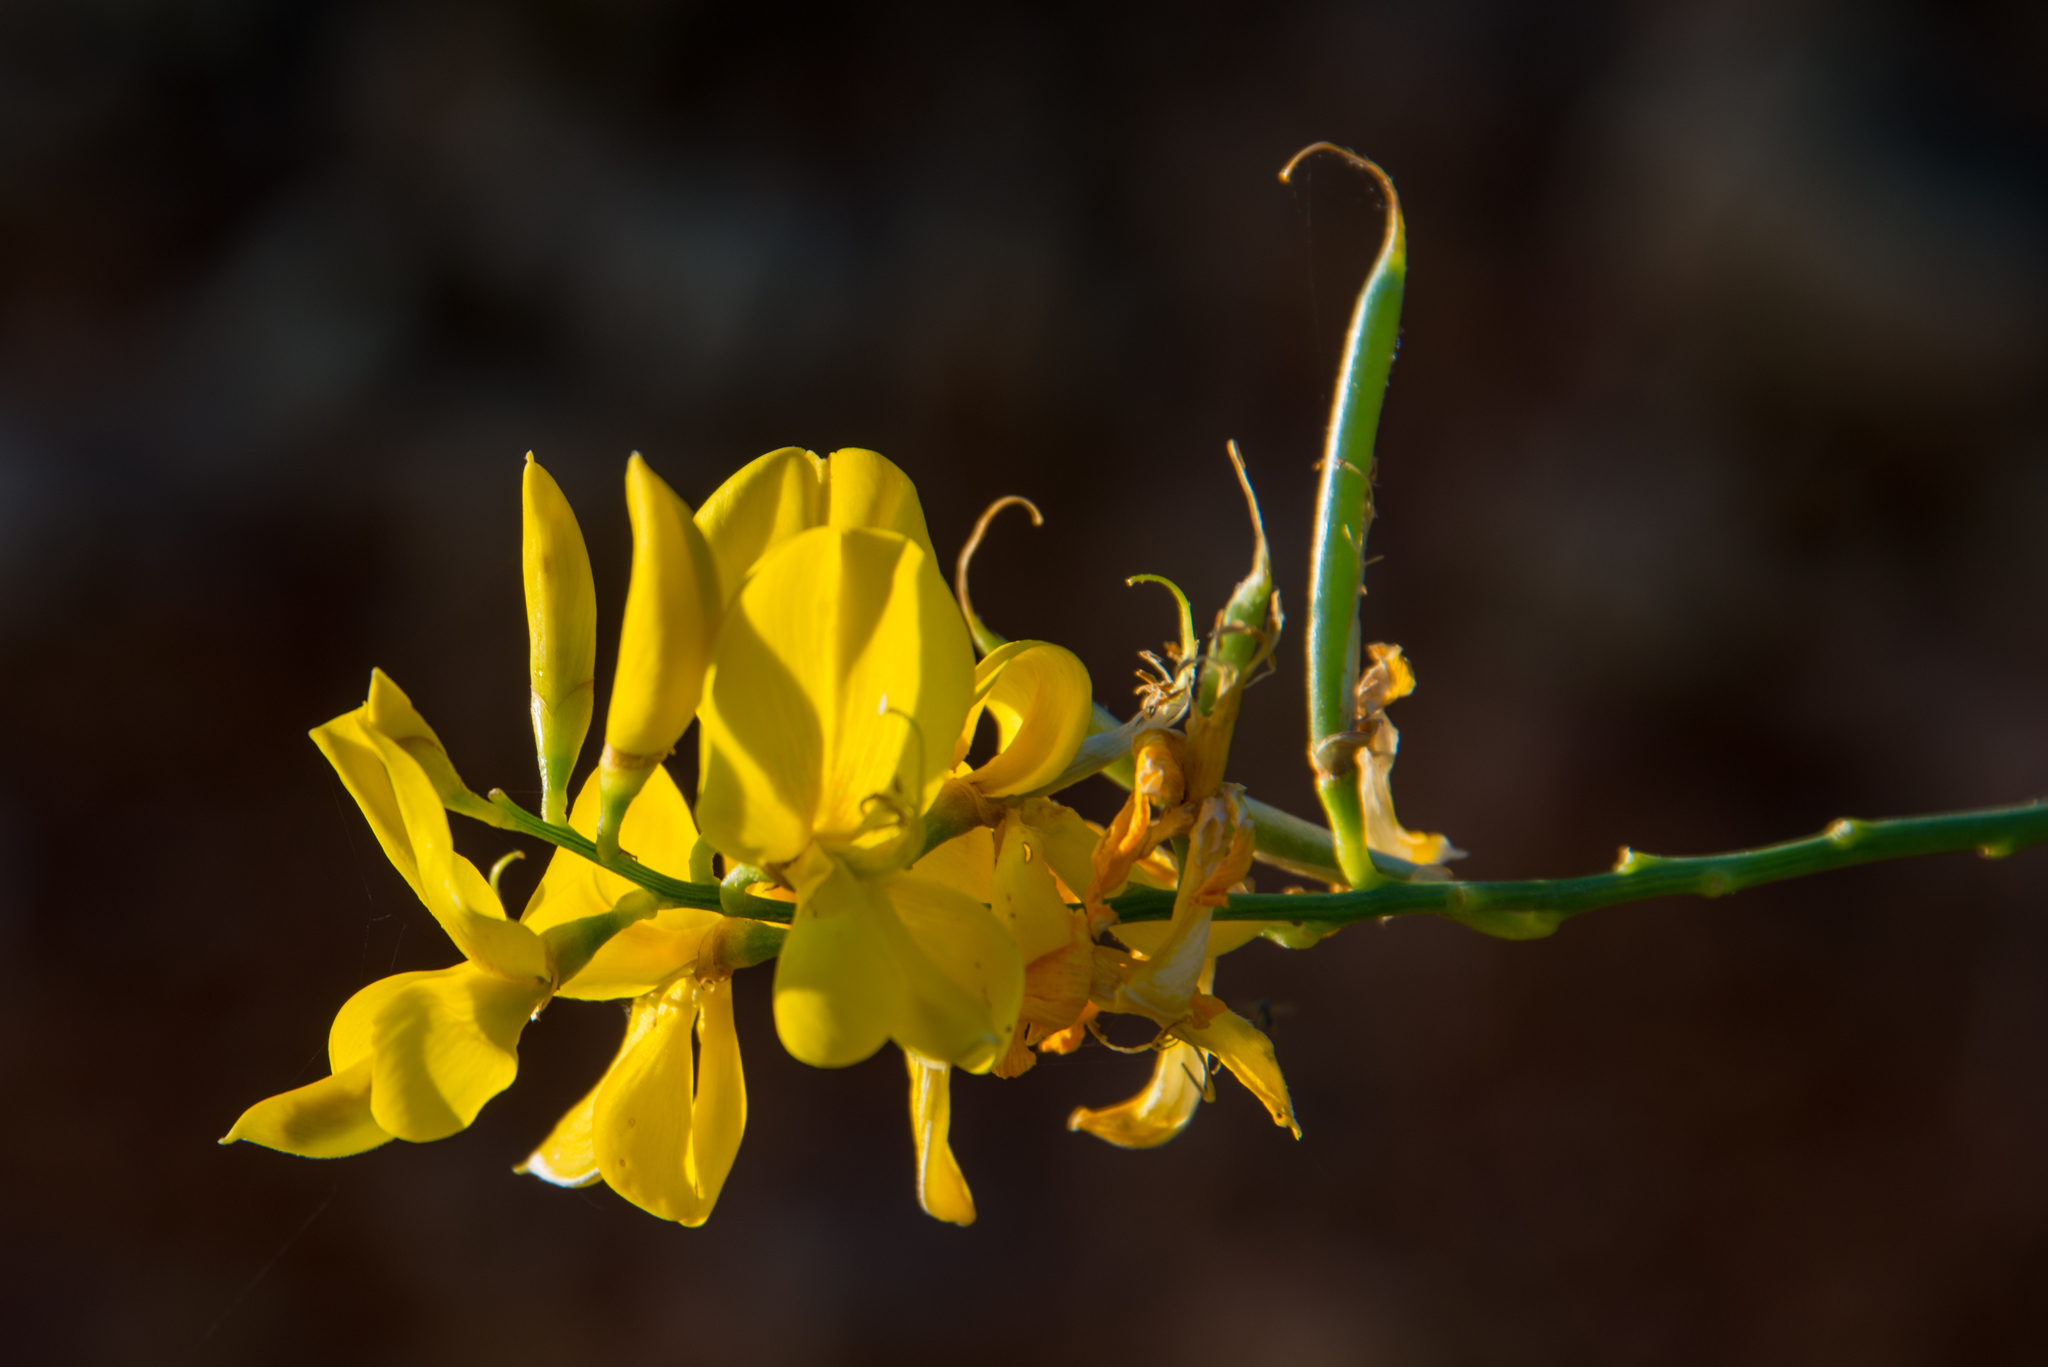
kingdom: Plantae
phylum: Tracheophyta
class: Magnoliopsida
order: Fabales
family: Fabaceae
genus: Spartium
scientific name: Spartium junceum
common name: Spanish broom
